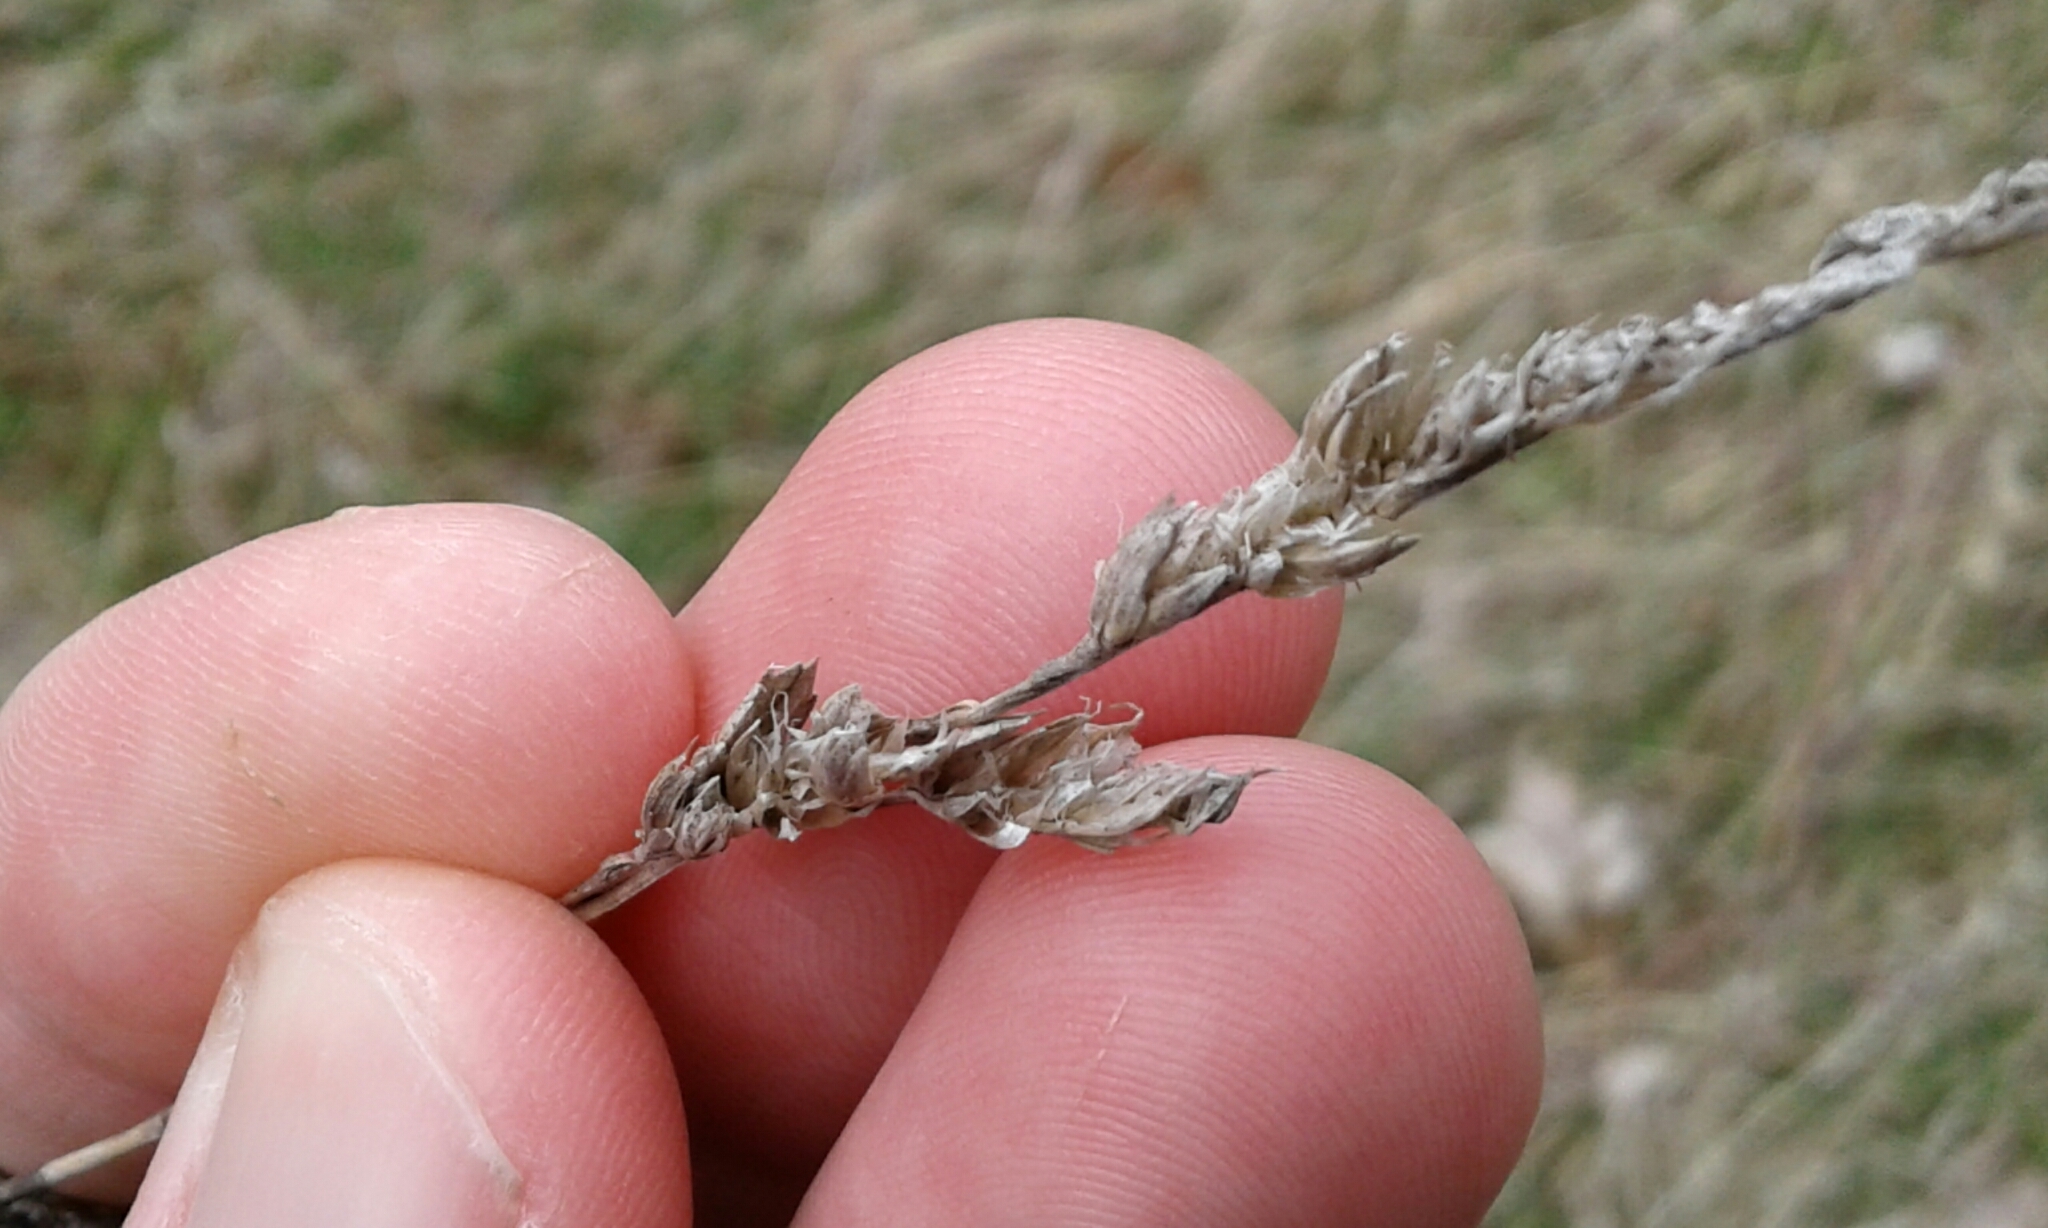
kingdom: Plantae
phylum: Tracheophyta
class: Liliopsida
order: Poales
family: Poaceae
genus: Dactylis
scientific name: Dactylis glomerata
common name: Orchardgrass
